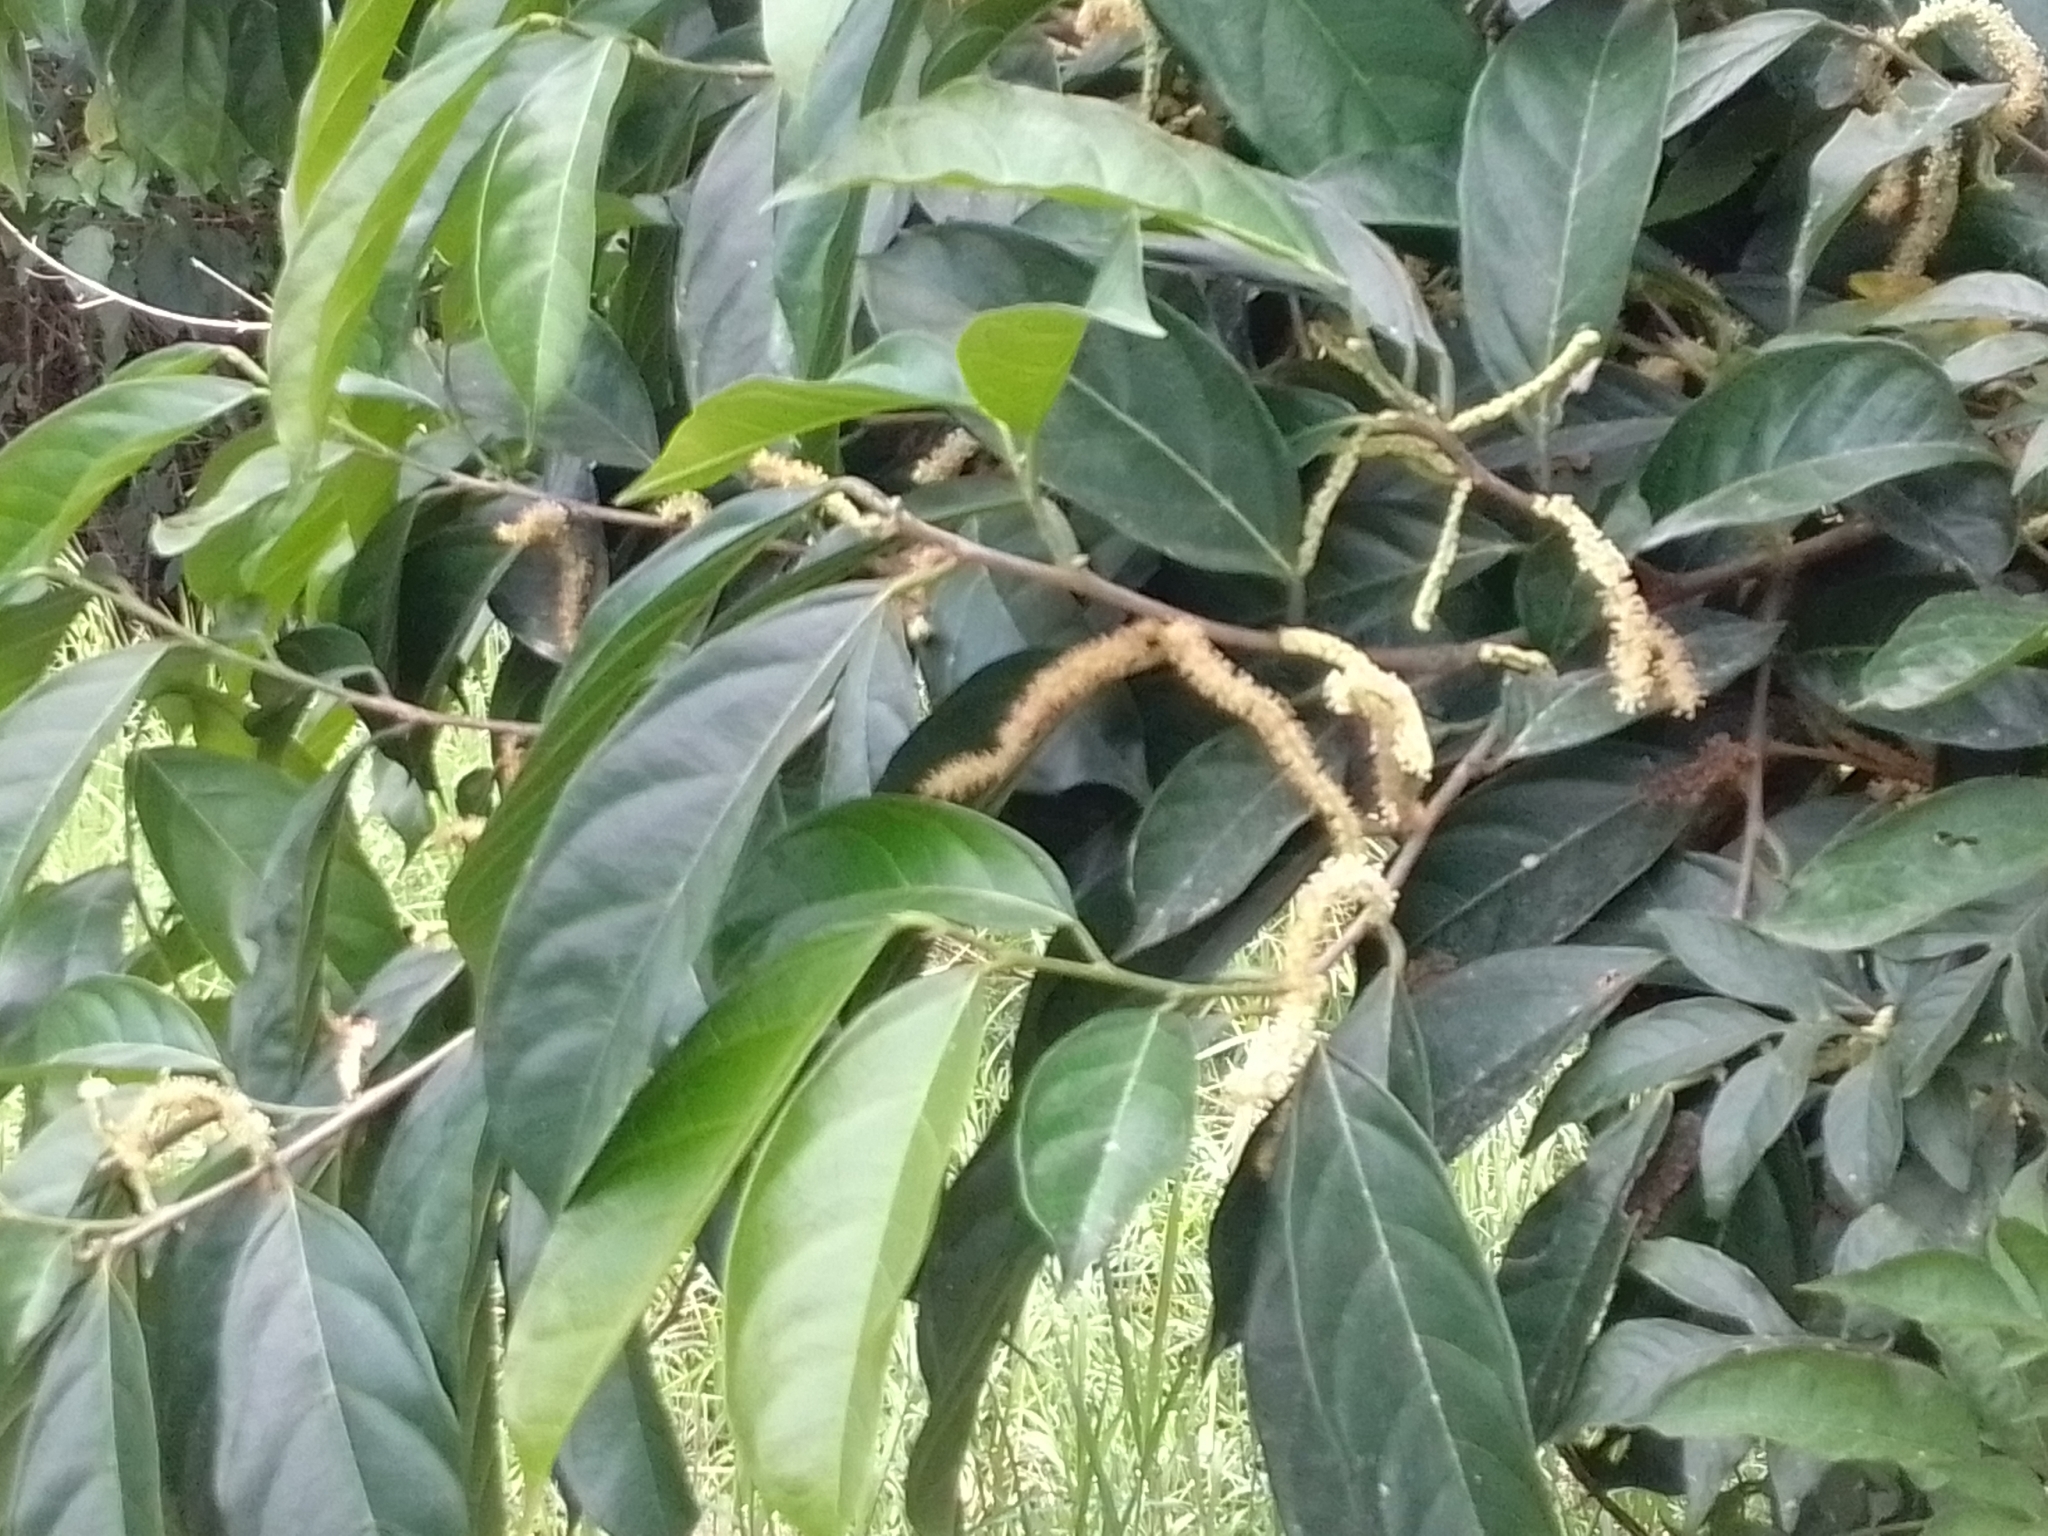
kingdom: Plantae
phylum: Tracheophyta
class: Magnoliopsida
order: Rosales
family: Moraceae
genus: Trophis
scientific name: Trophis racemosa
